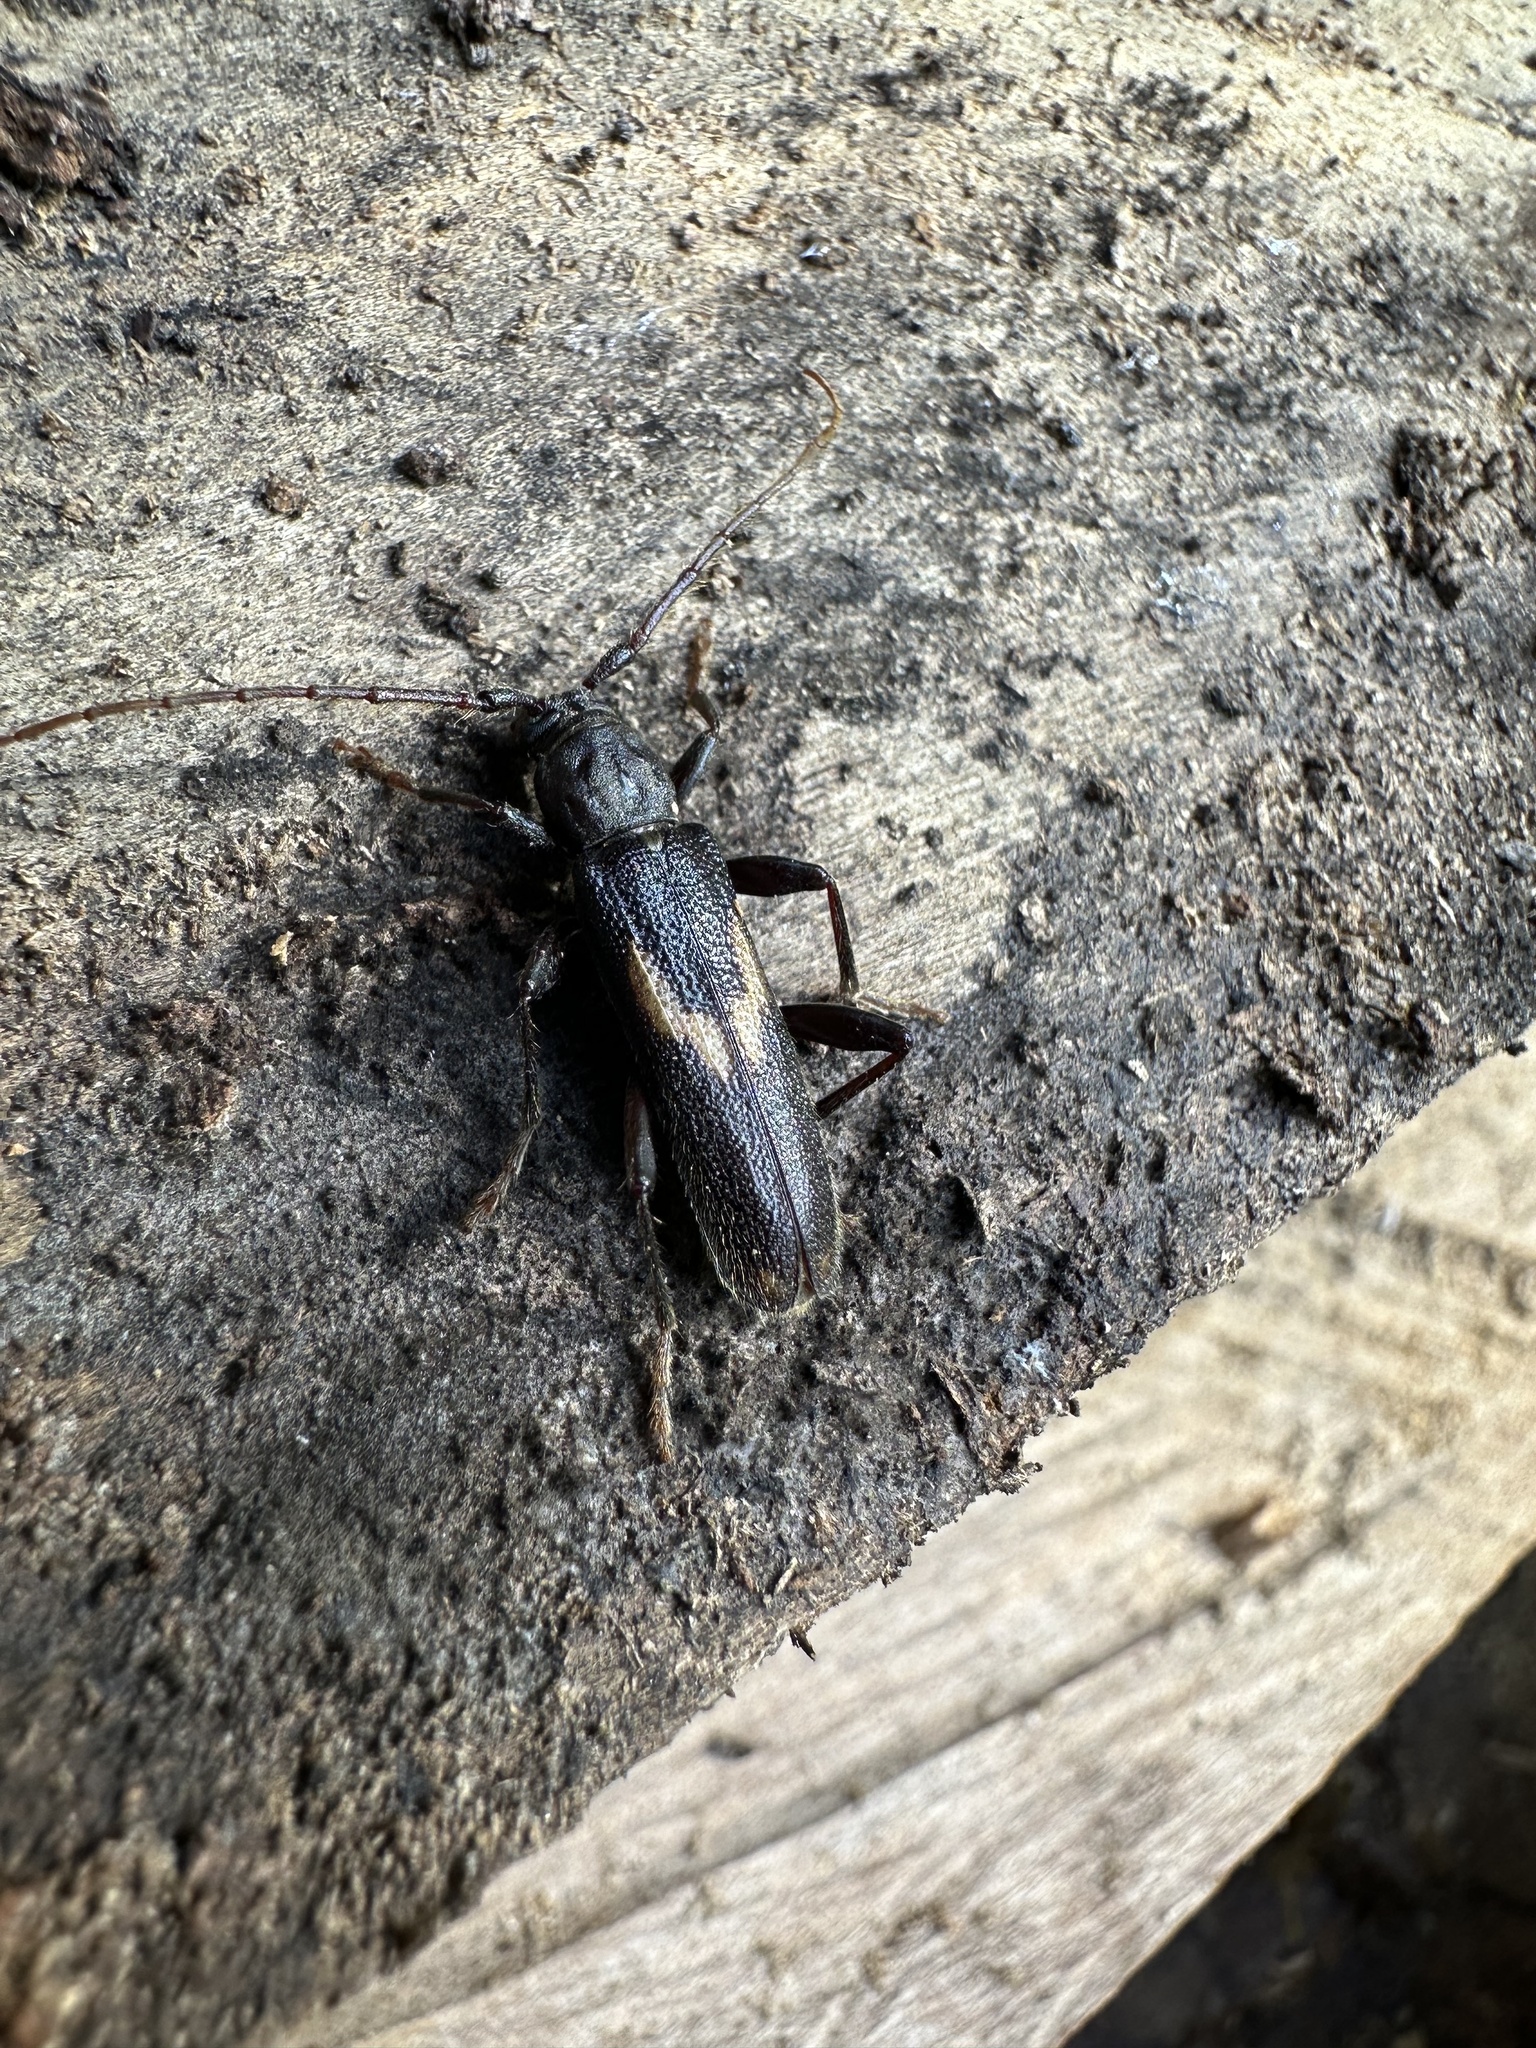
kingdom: Animalia
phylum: Arthropoda
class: Insecta
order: Coleoptera
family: Cerambycidae
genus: Grammicosum
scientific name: Grammicosum flavofasciatum
